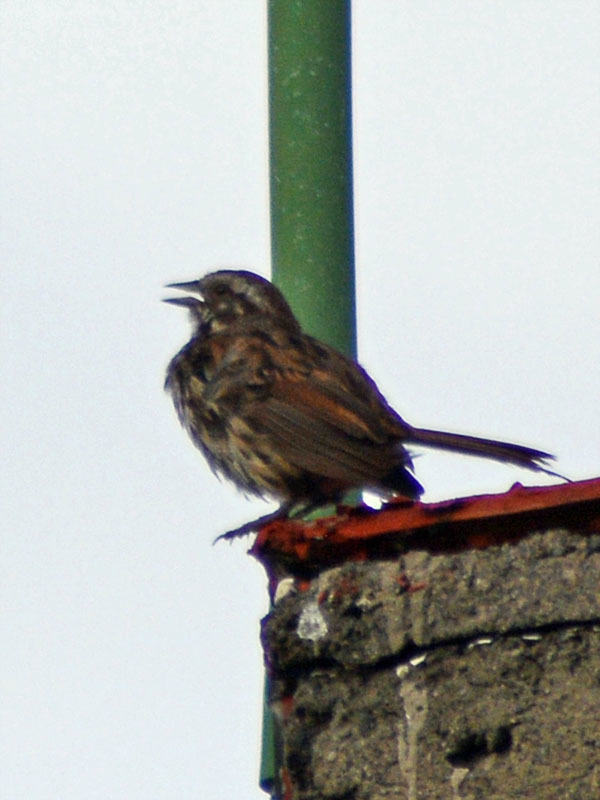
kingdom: Animalia
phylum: Chordata
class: Aves
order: Passeriformes
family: Passerellidae
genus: Melospiza
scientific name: Melospiza melodia
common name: Song sparrow
